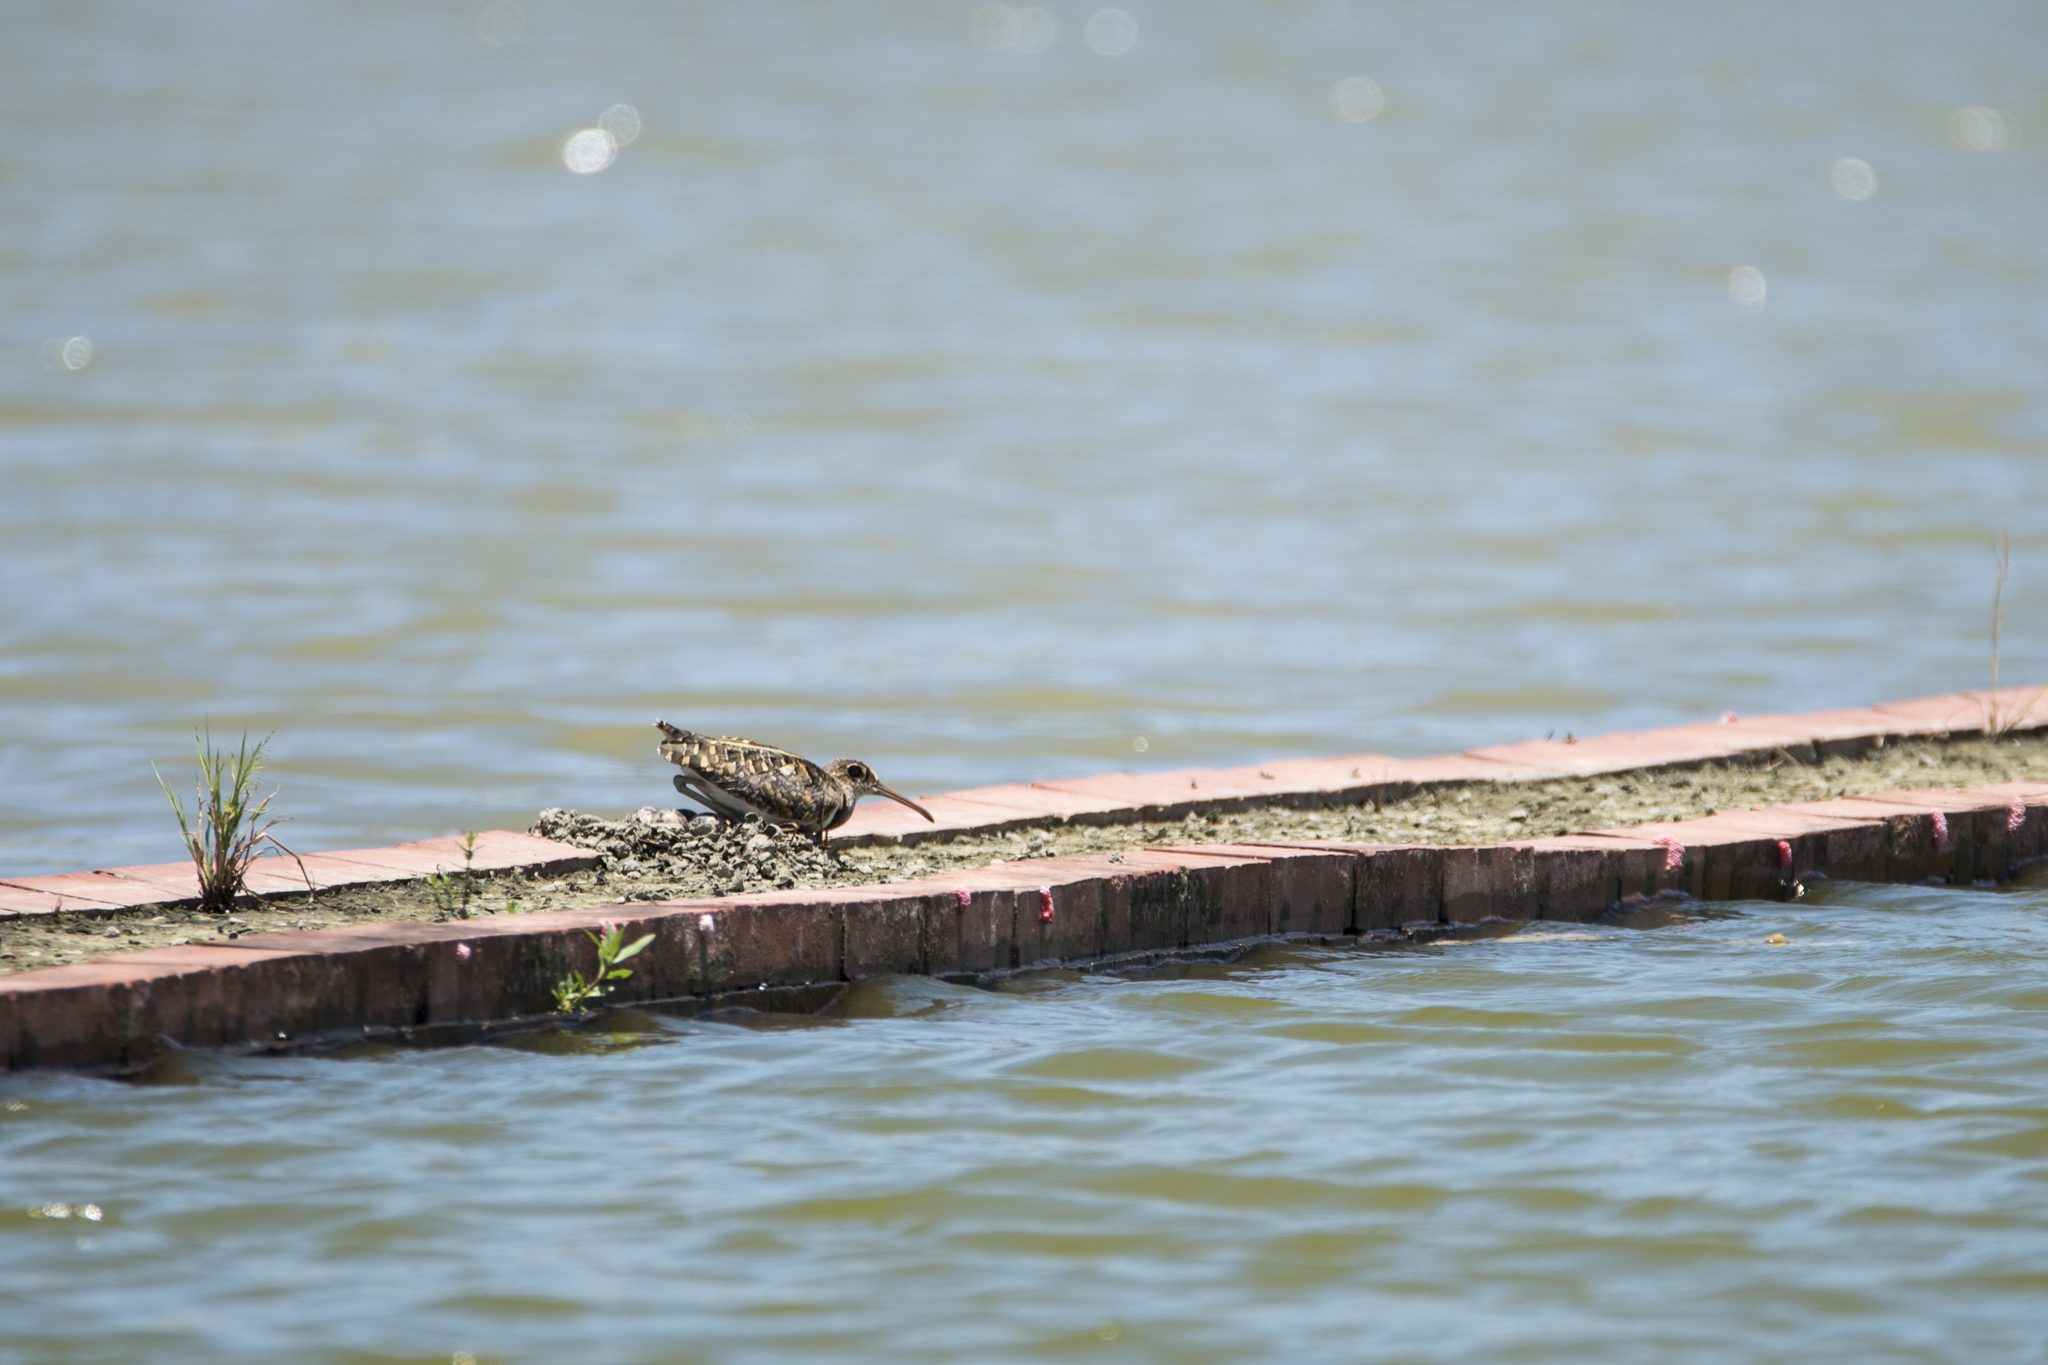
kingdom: Animalia
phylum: Chordata
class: Aves
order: Charadriiformes
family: Rostratulidae
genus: Rostratula
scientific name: Rostratula benghalensis
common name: Greater painted-snipe
